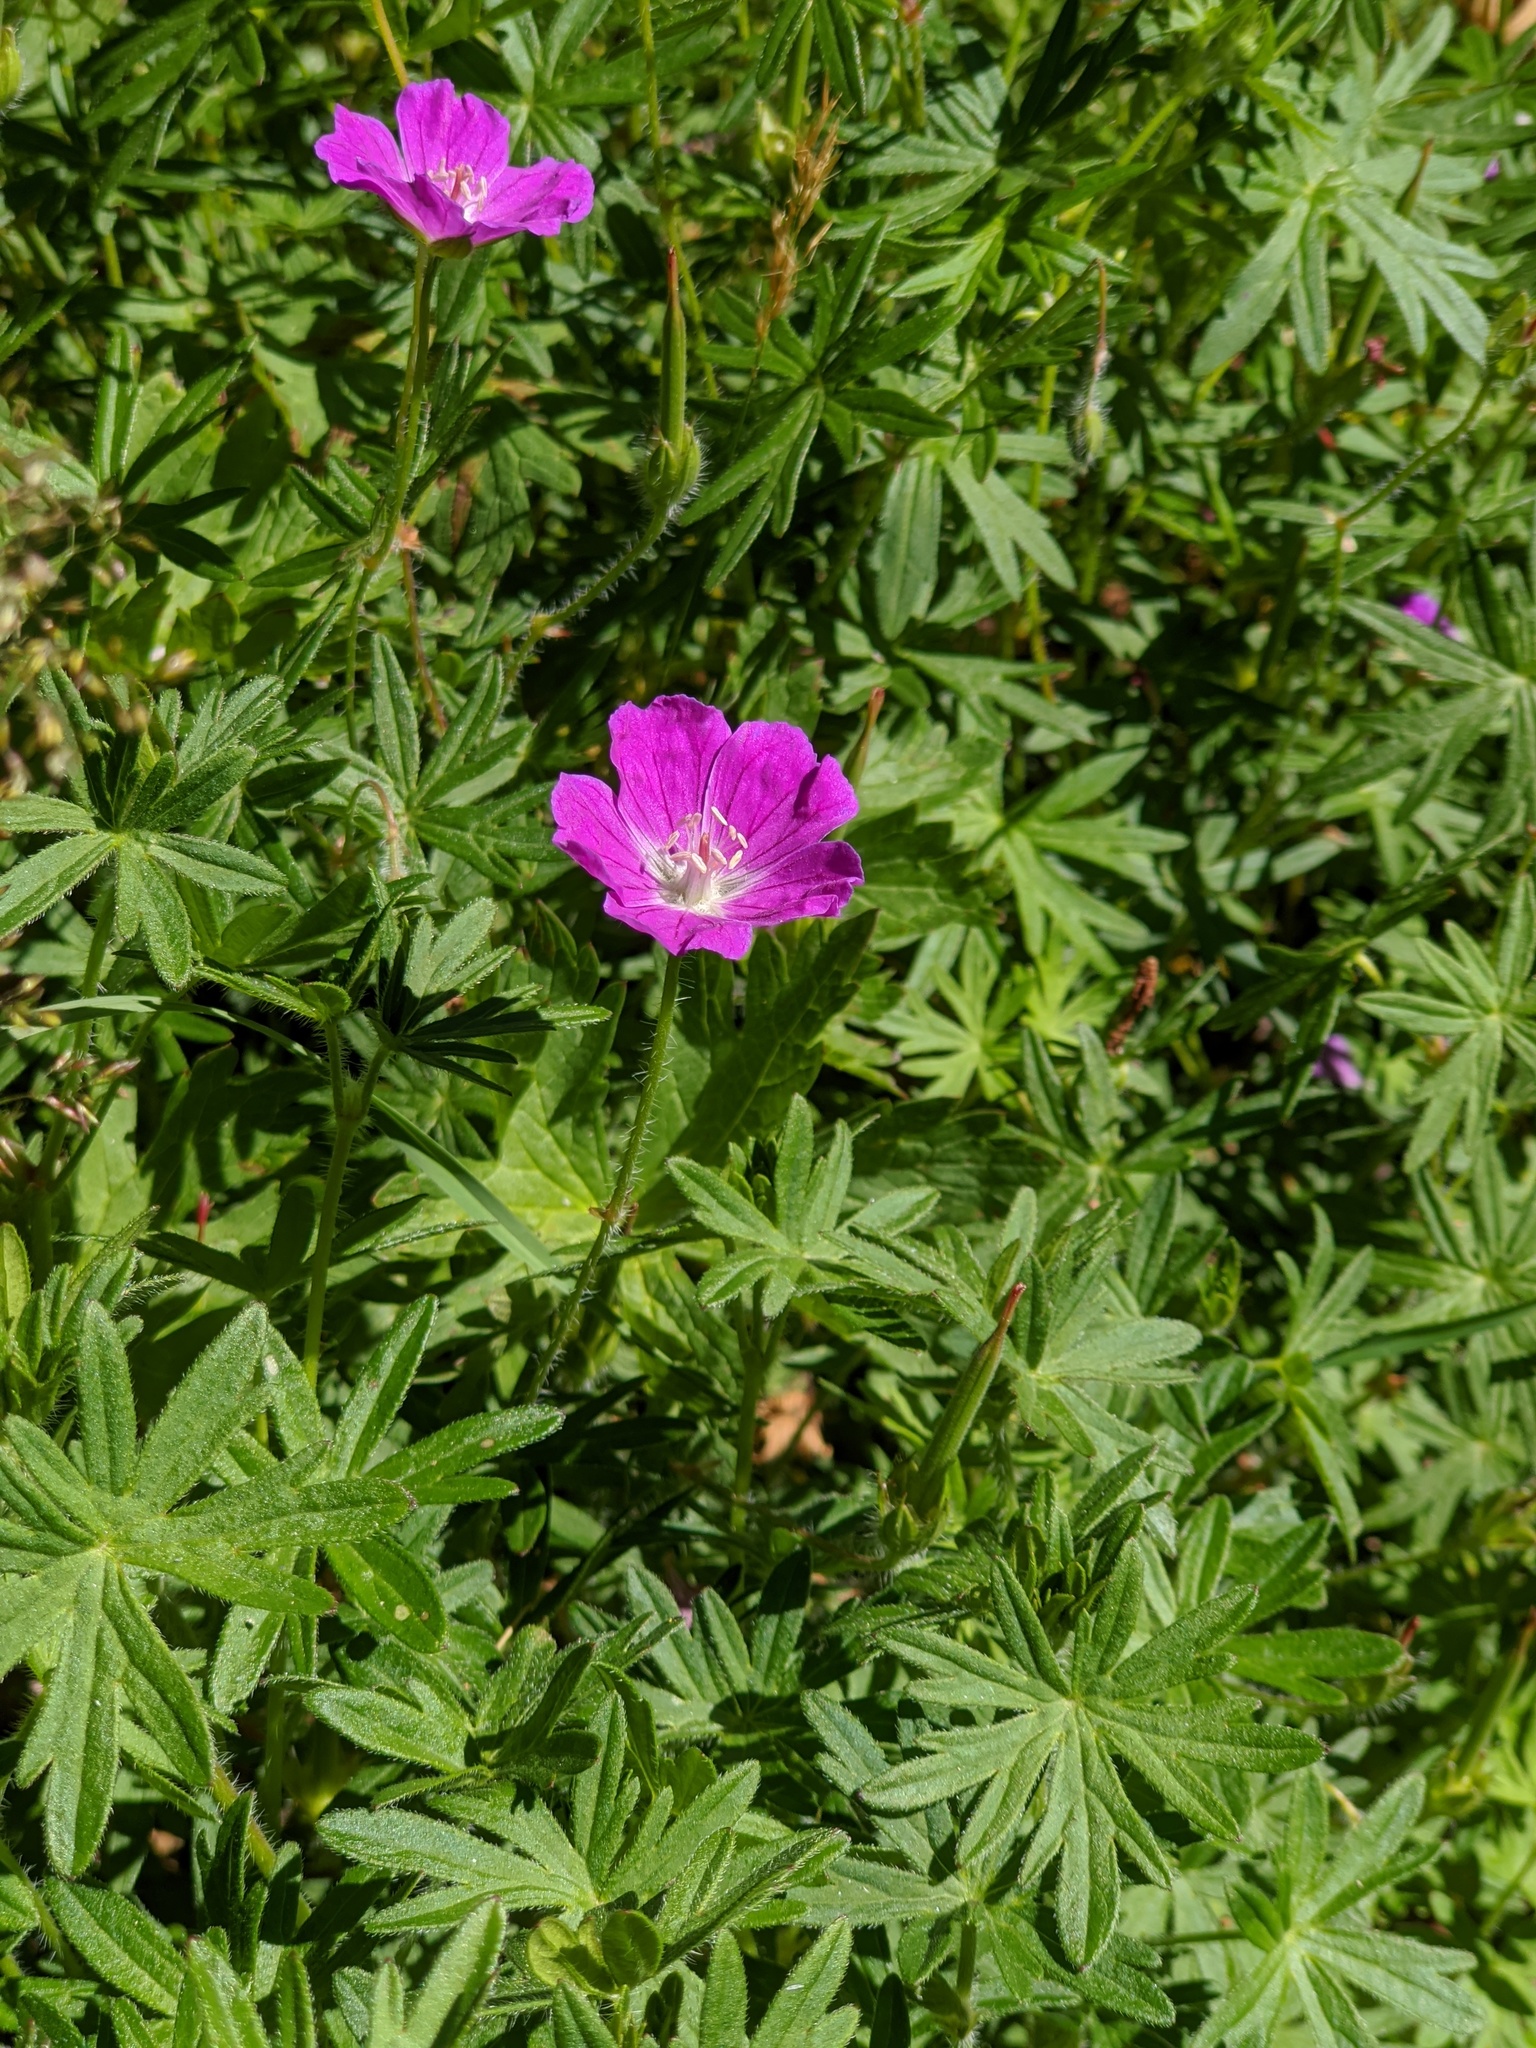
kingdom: Plantae
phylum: Tracheophyta
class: Magnoliopsida
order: Geraniales
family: Geraniaceae
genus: Geranium
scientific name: Geranium sanguineum
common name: Bloody crane's-bill
